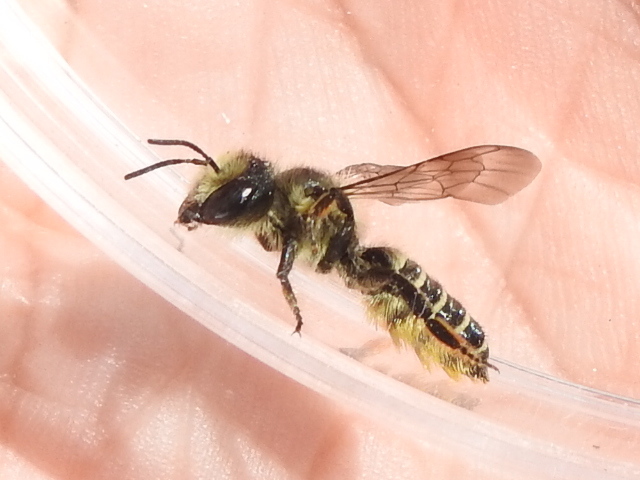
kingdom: Animalia
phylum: Arthropoda
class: Insecta
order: Hymenoptera
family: Megachilidae
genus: Megachile
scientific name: Megachile montivaga
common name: Silver-tailed petalcutter bee
